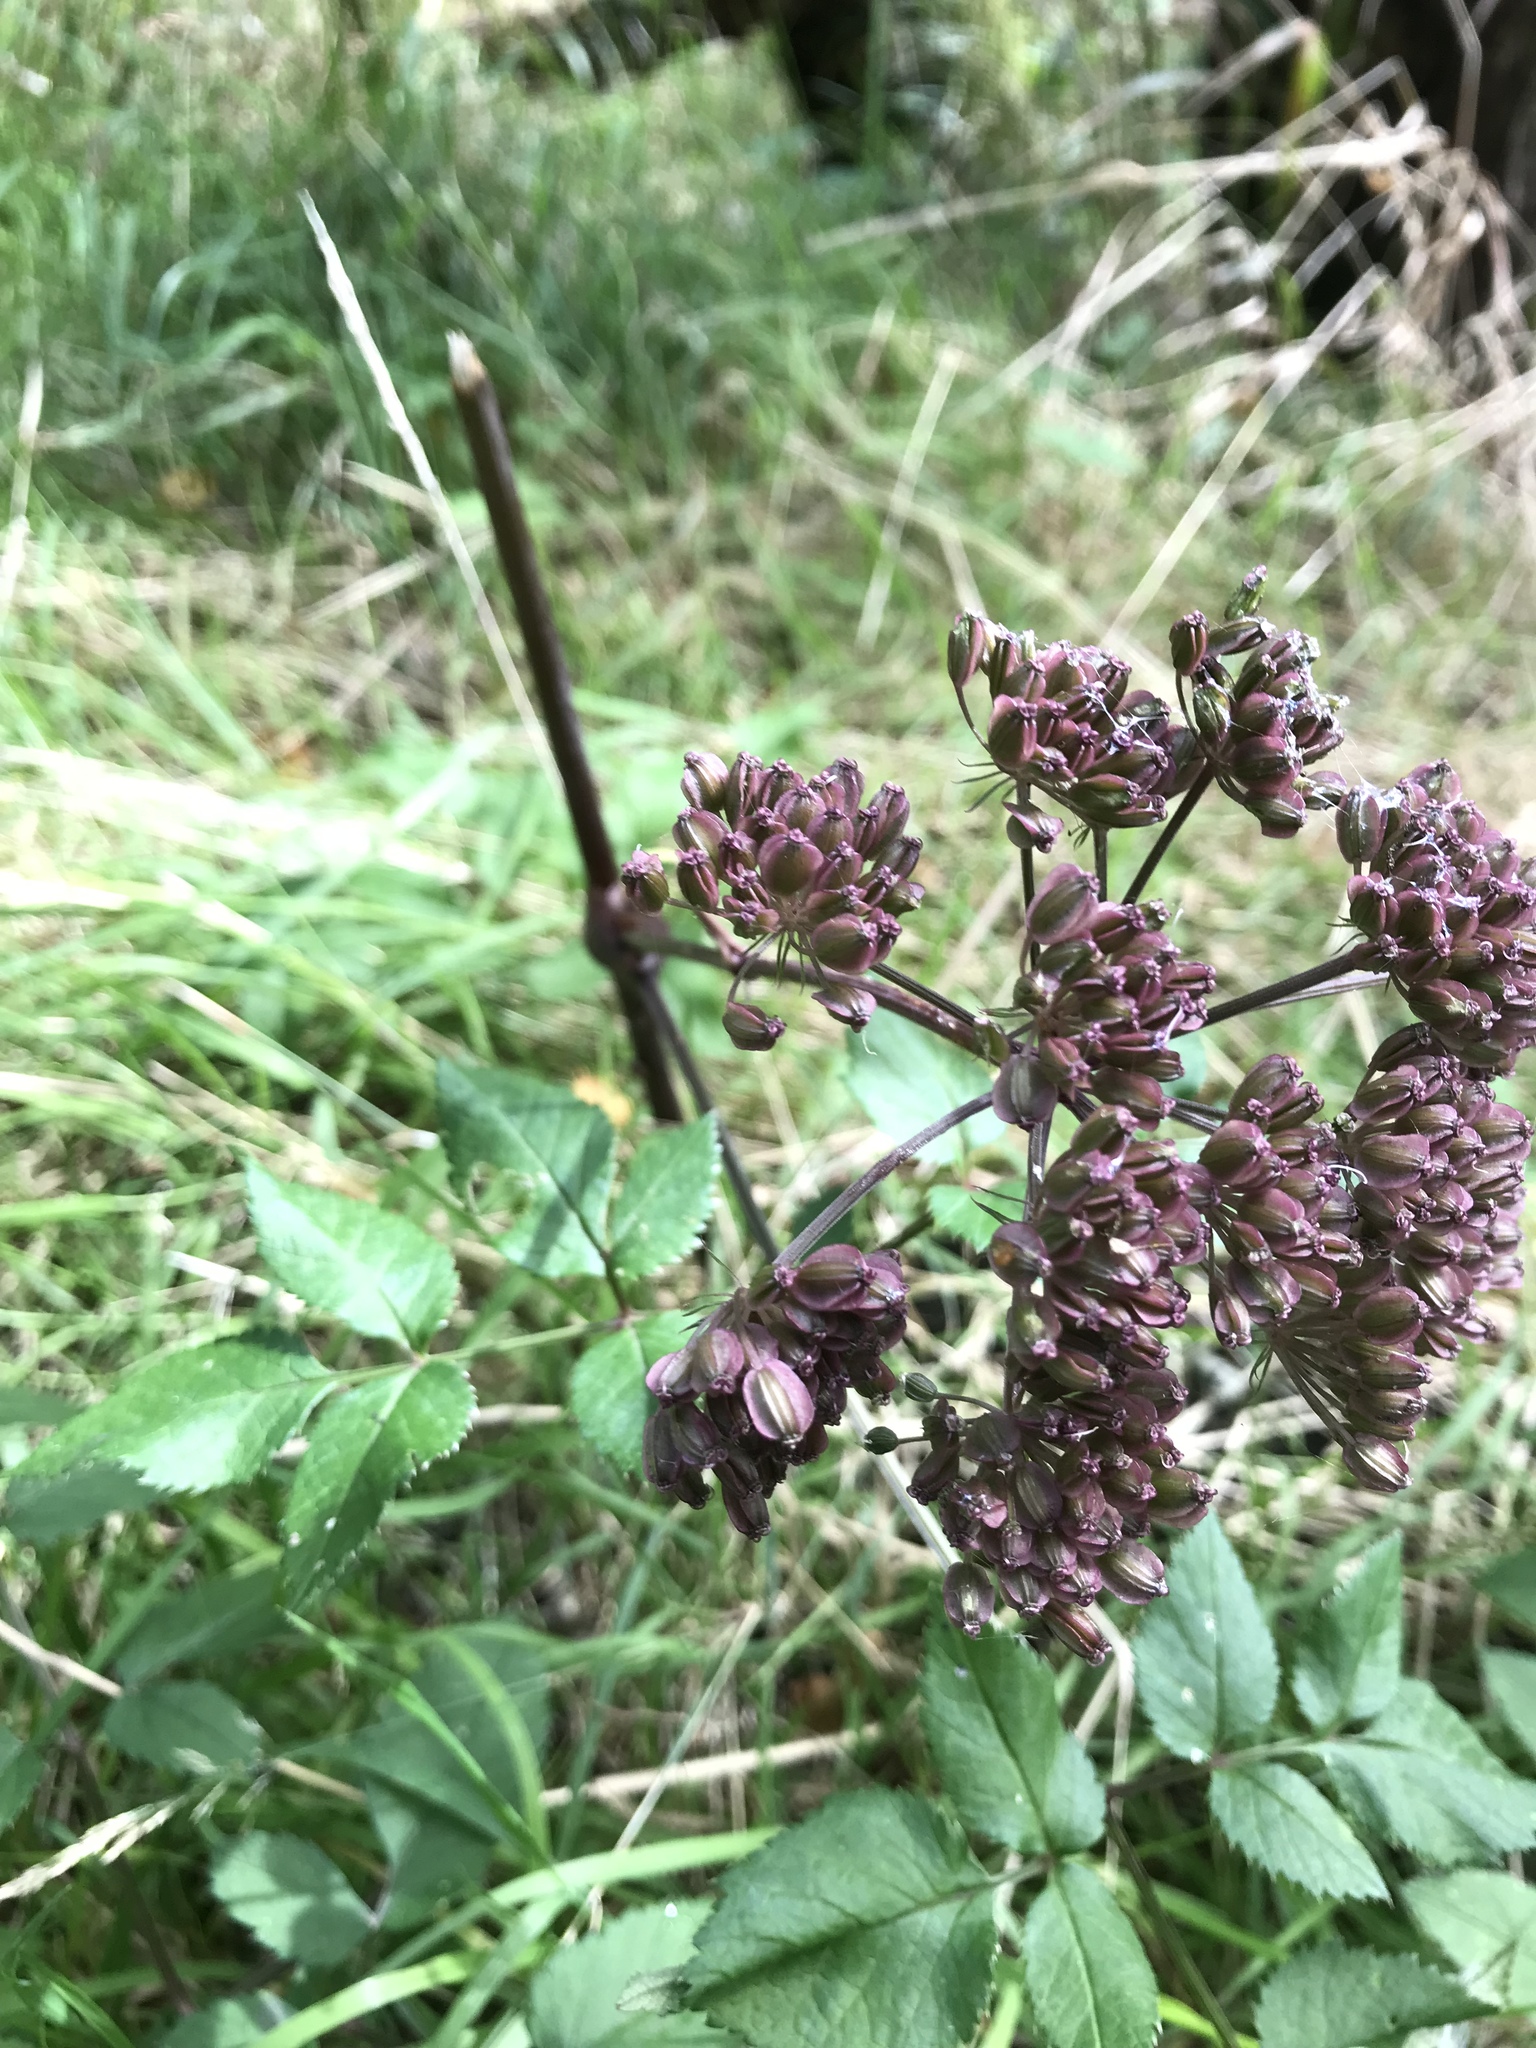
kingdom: Plantae
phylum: Tracheophyta
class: Magnoliopsida
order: Apiales
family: Apiaceae
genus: Angelica
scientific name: Angelica sylvestris
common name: Wild angelica
